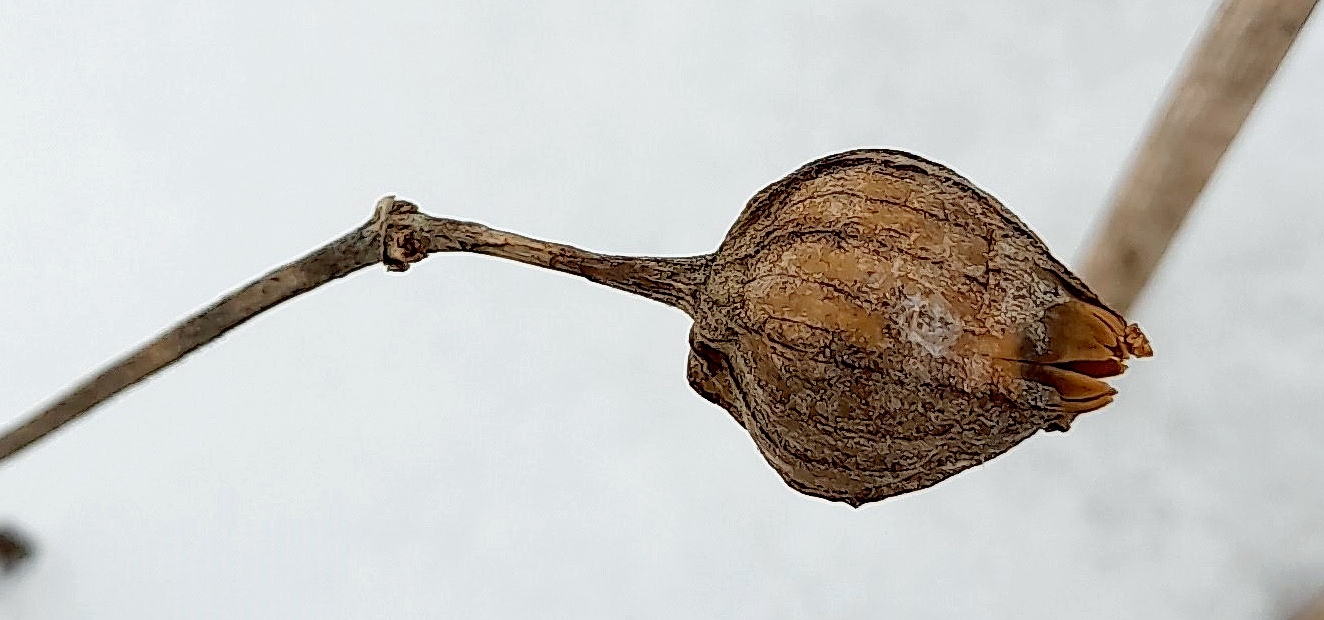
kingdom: Plantae
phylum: Tracheophyta
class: Magnoliopsida
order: Caryophyllales
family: Caryophyllaceae
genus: Silene
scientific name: Silene latifolia
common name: White campion
